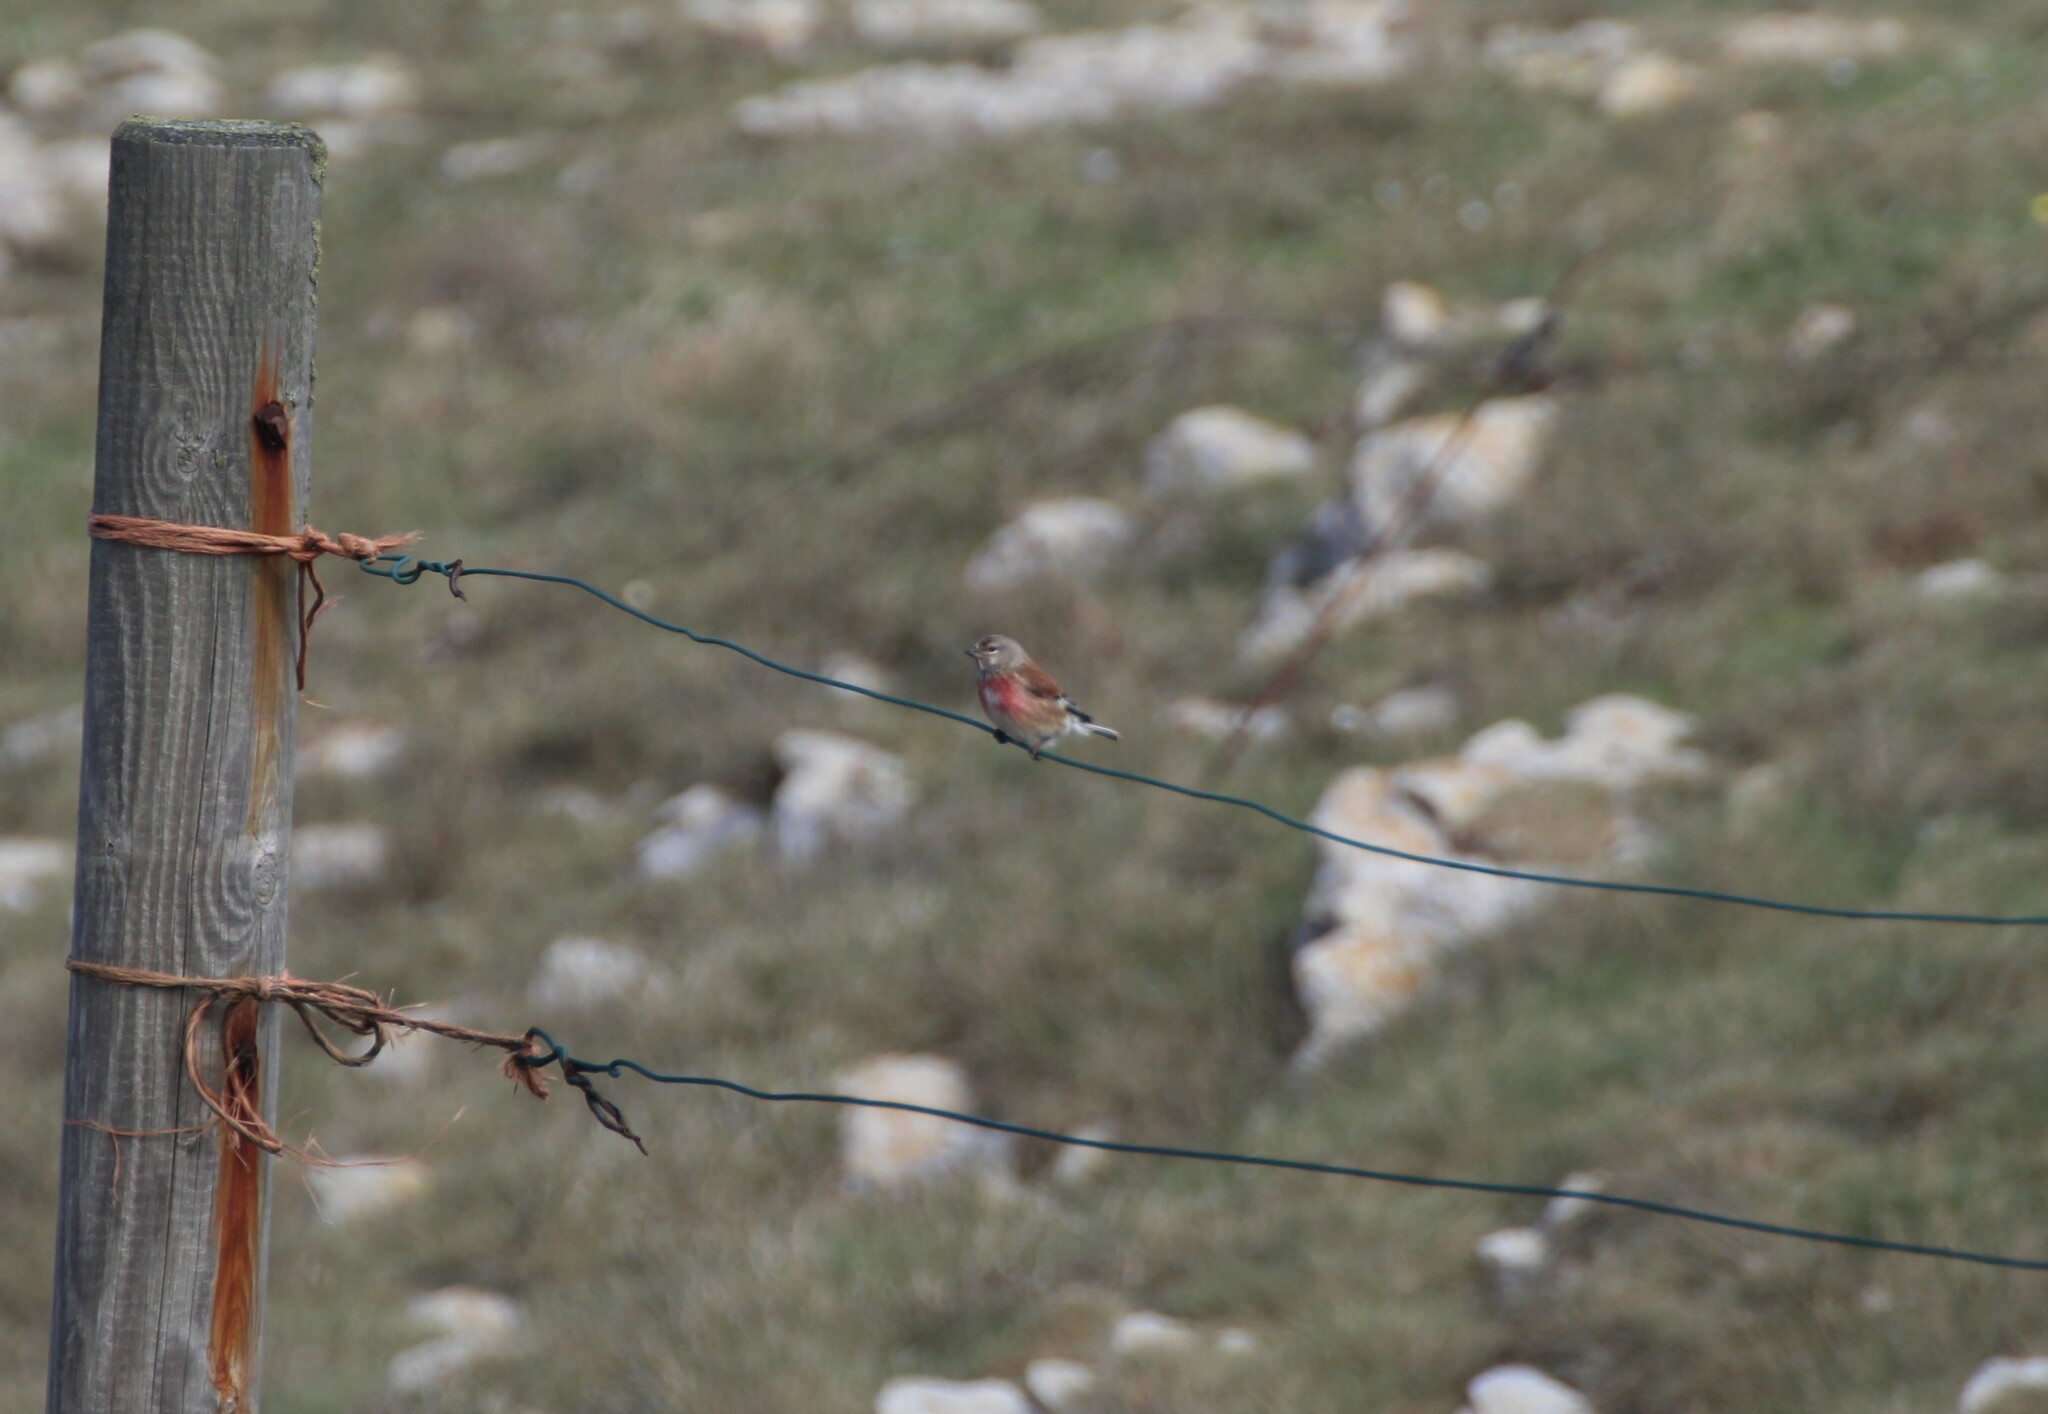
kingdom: Animalia
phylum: Chordata
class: Aves
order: Passeriformes
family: Fringillidae
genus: Linaria
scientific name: Linaria cannabina
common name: Common linnet
